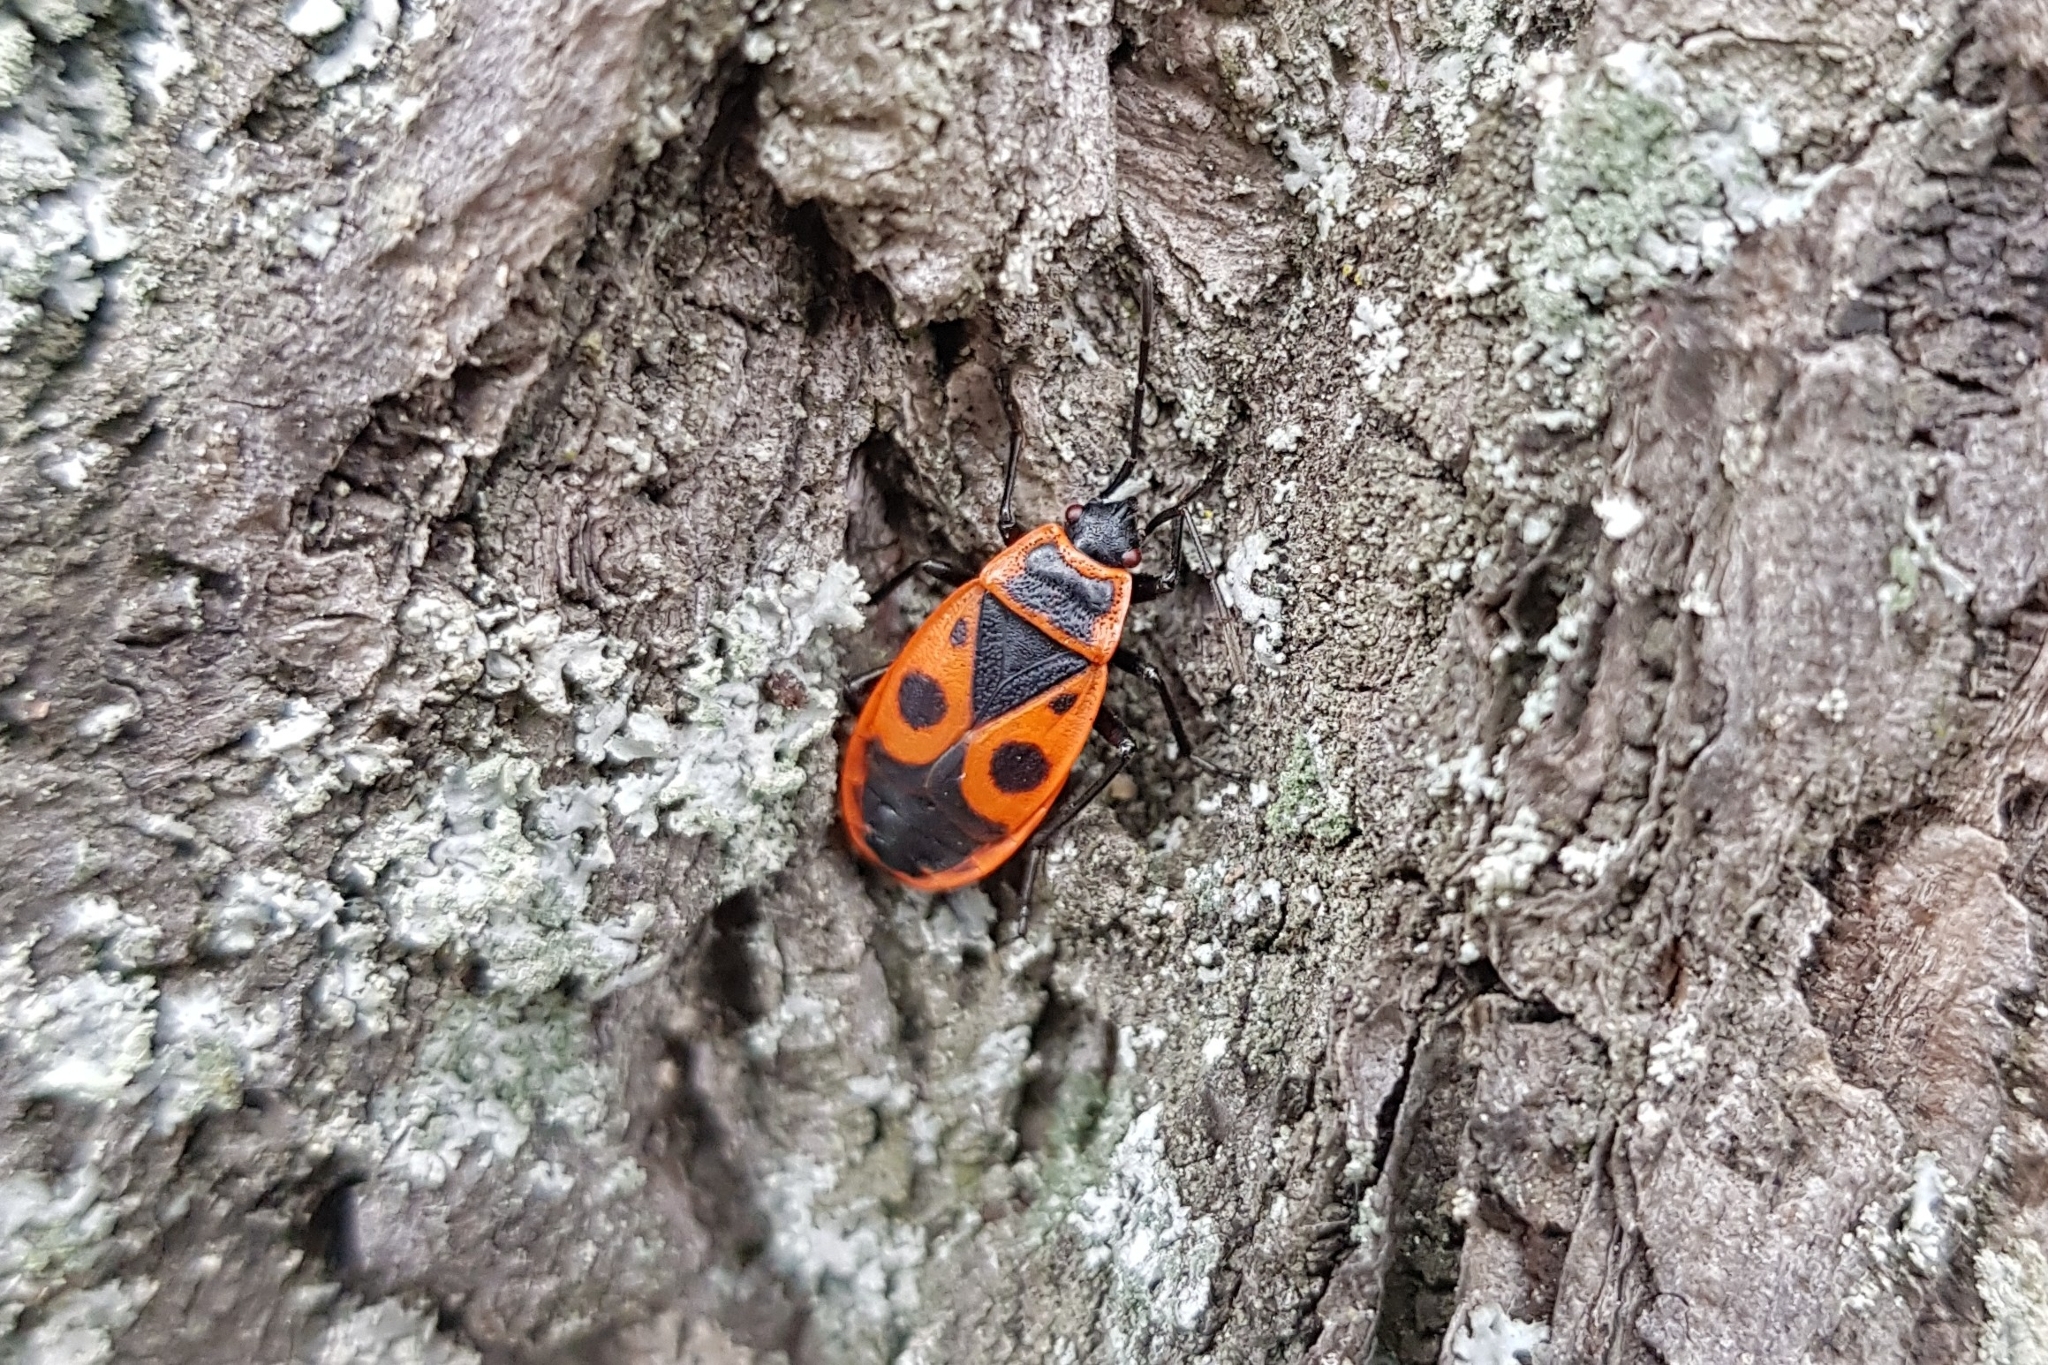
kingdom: Animalia
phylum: Arthropoda
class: Insecta
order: Hemiptera
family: Pyrrhocoridae
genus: Pyrrhocoris
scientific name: Pyrrhocoris apterus
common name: Firebug
